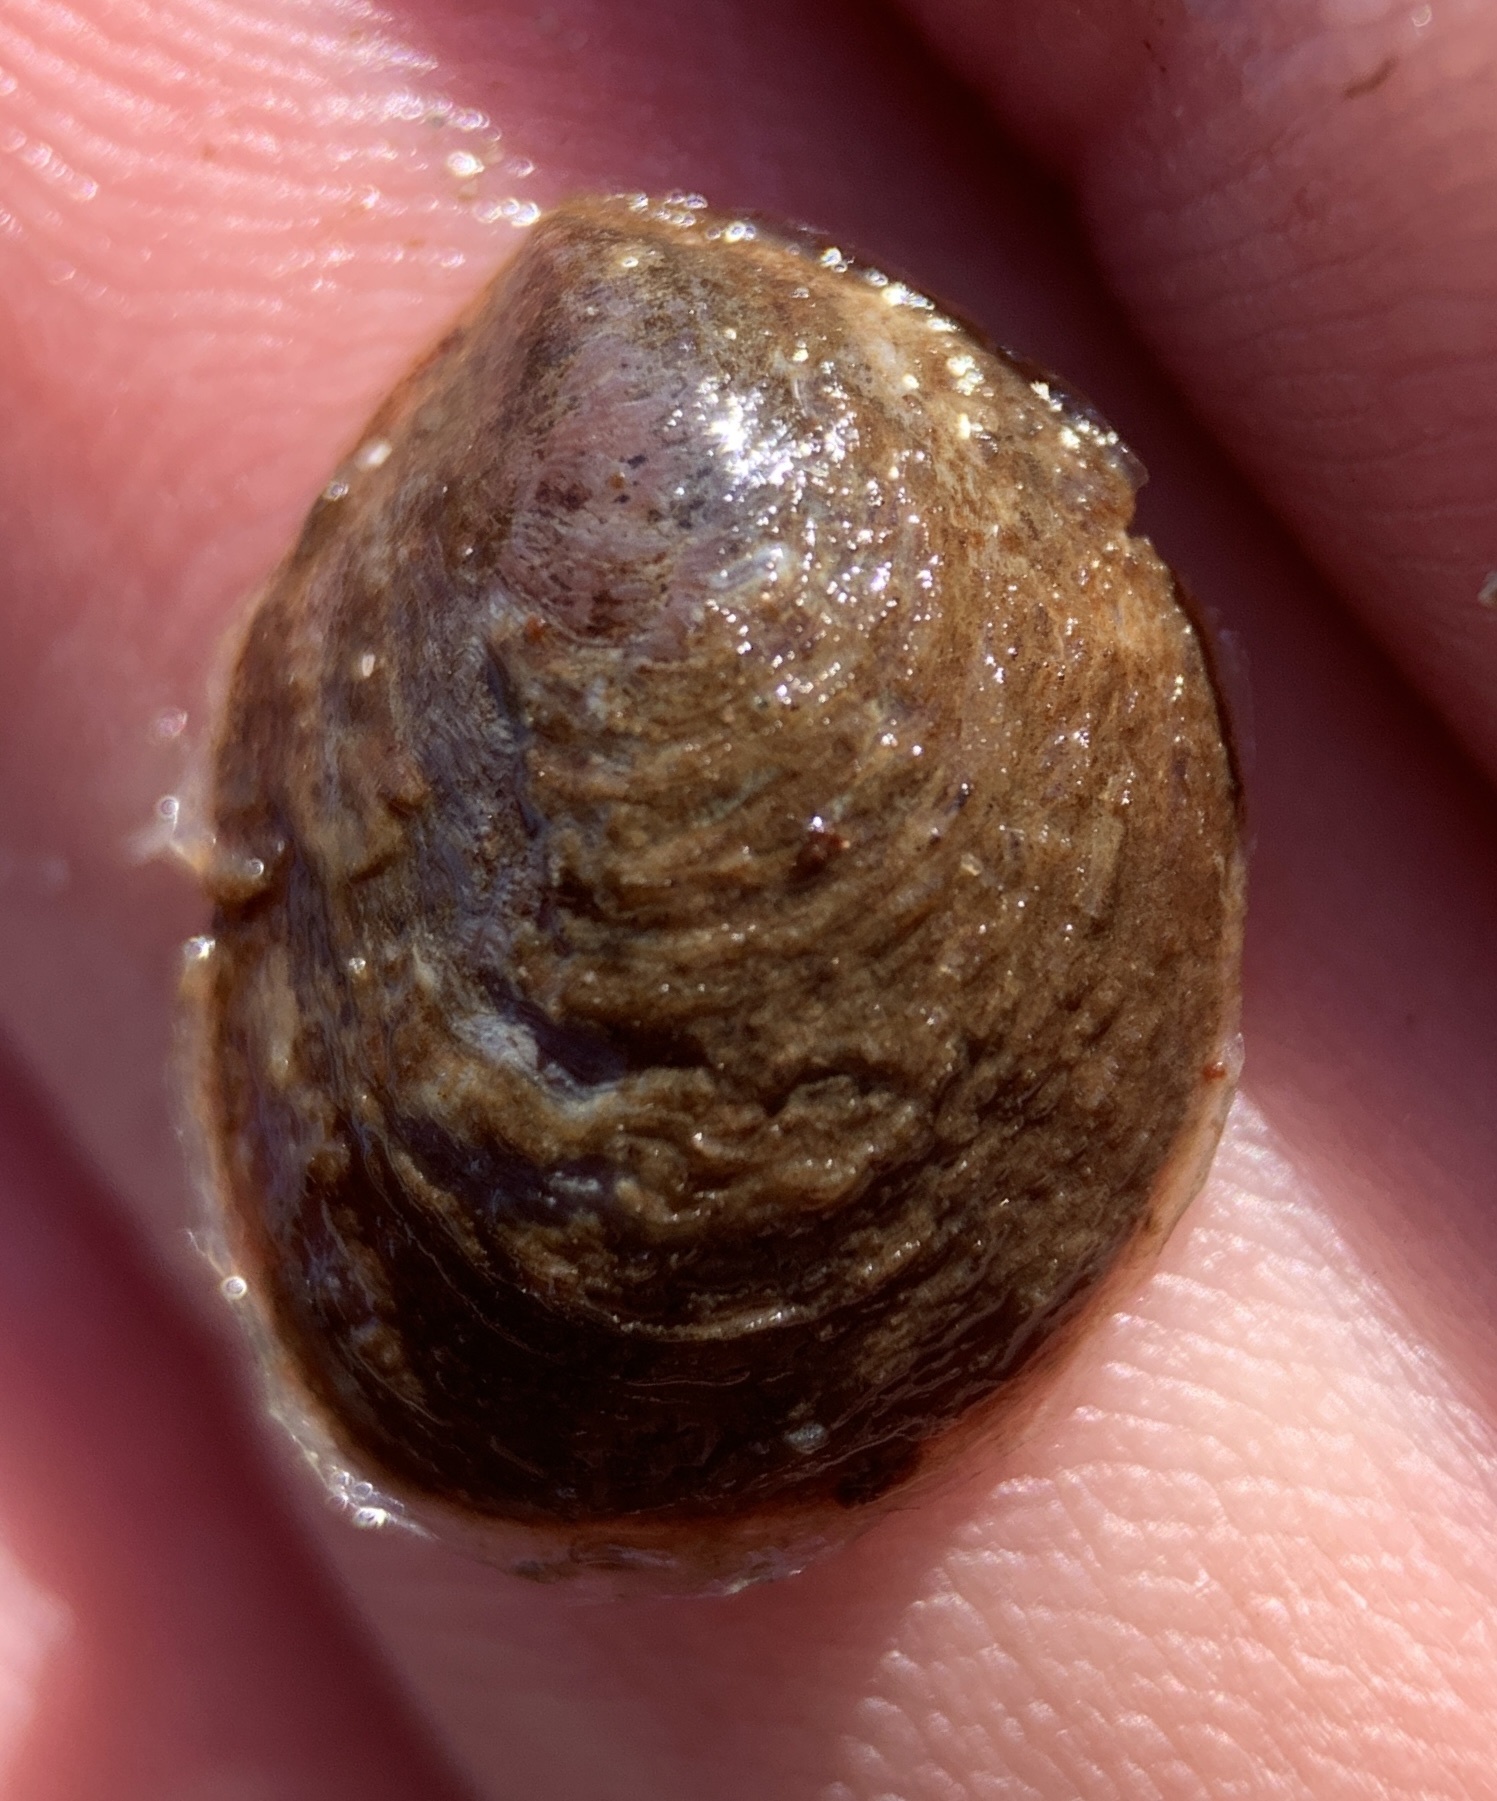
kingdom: Animalia
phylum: Mollusca
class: Gastropoda
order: Littorinimorpha
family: Calyptraeidae
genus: Crepidula
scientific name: Crepidula convexa
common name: Convex slippersnail
